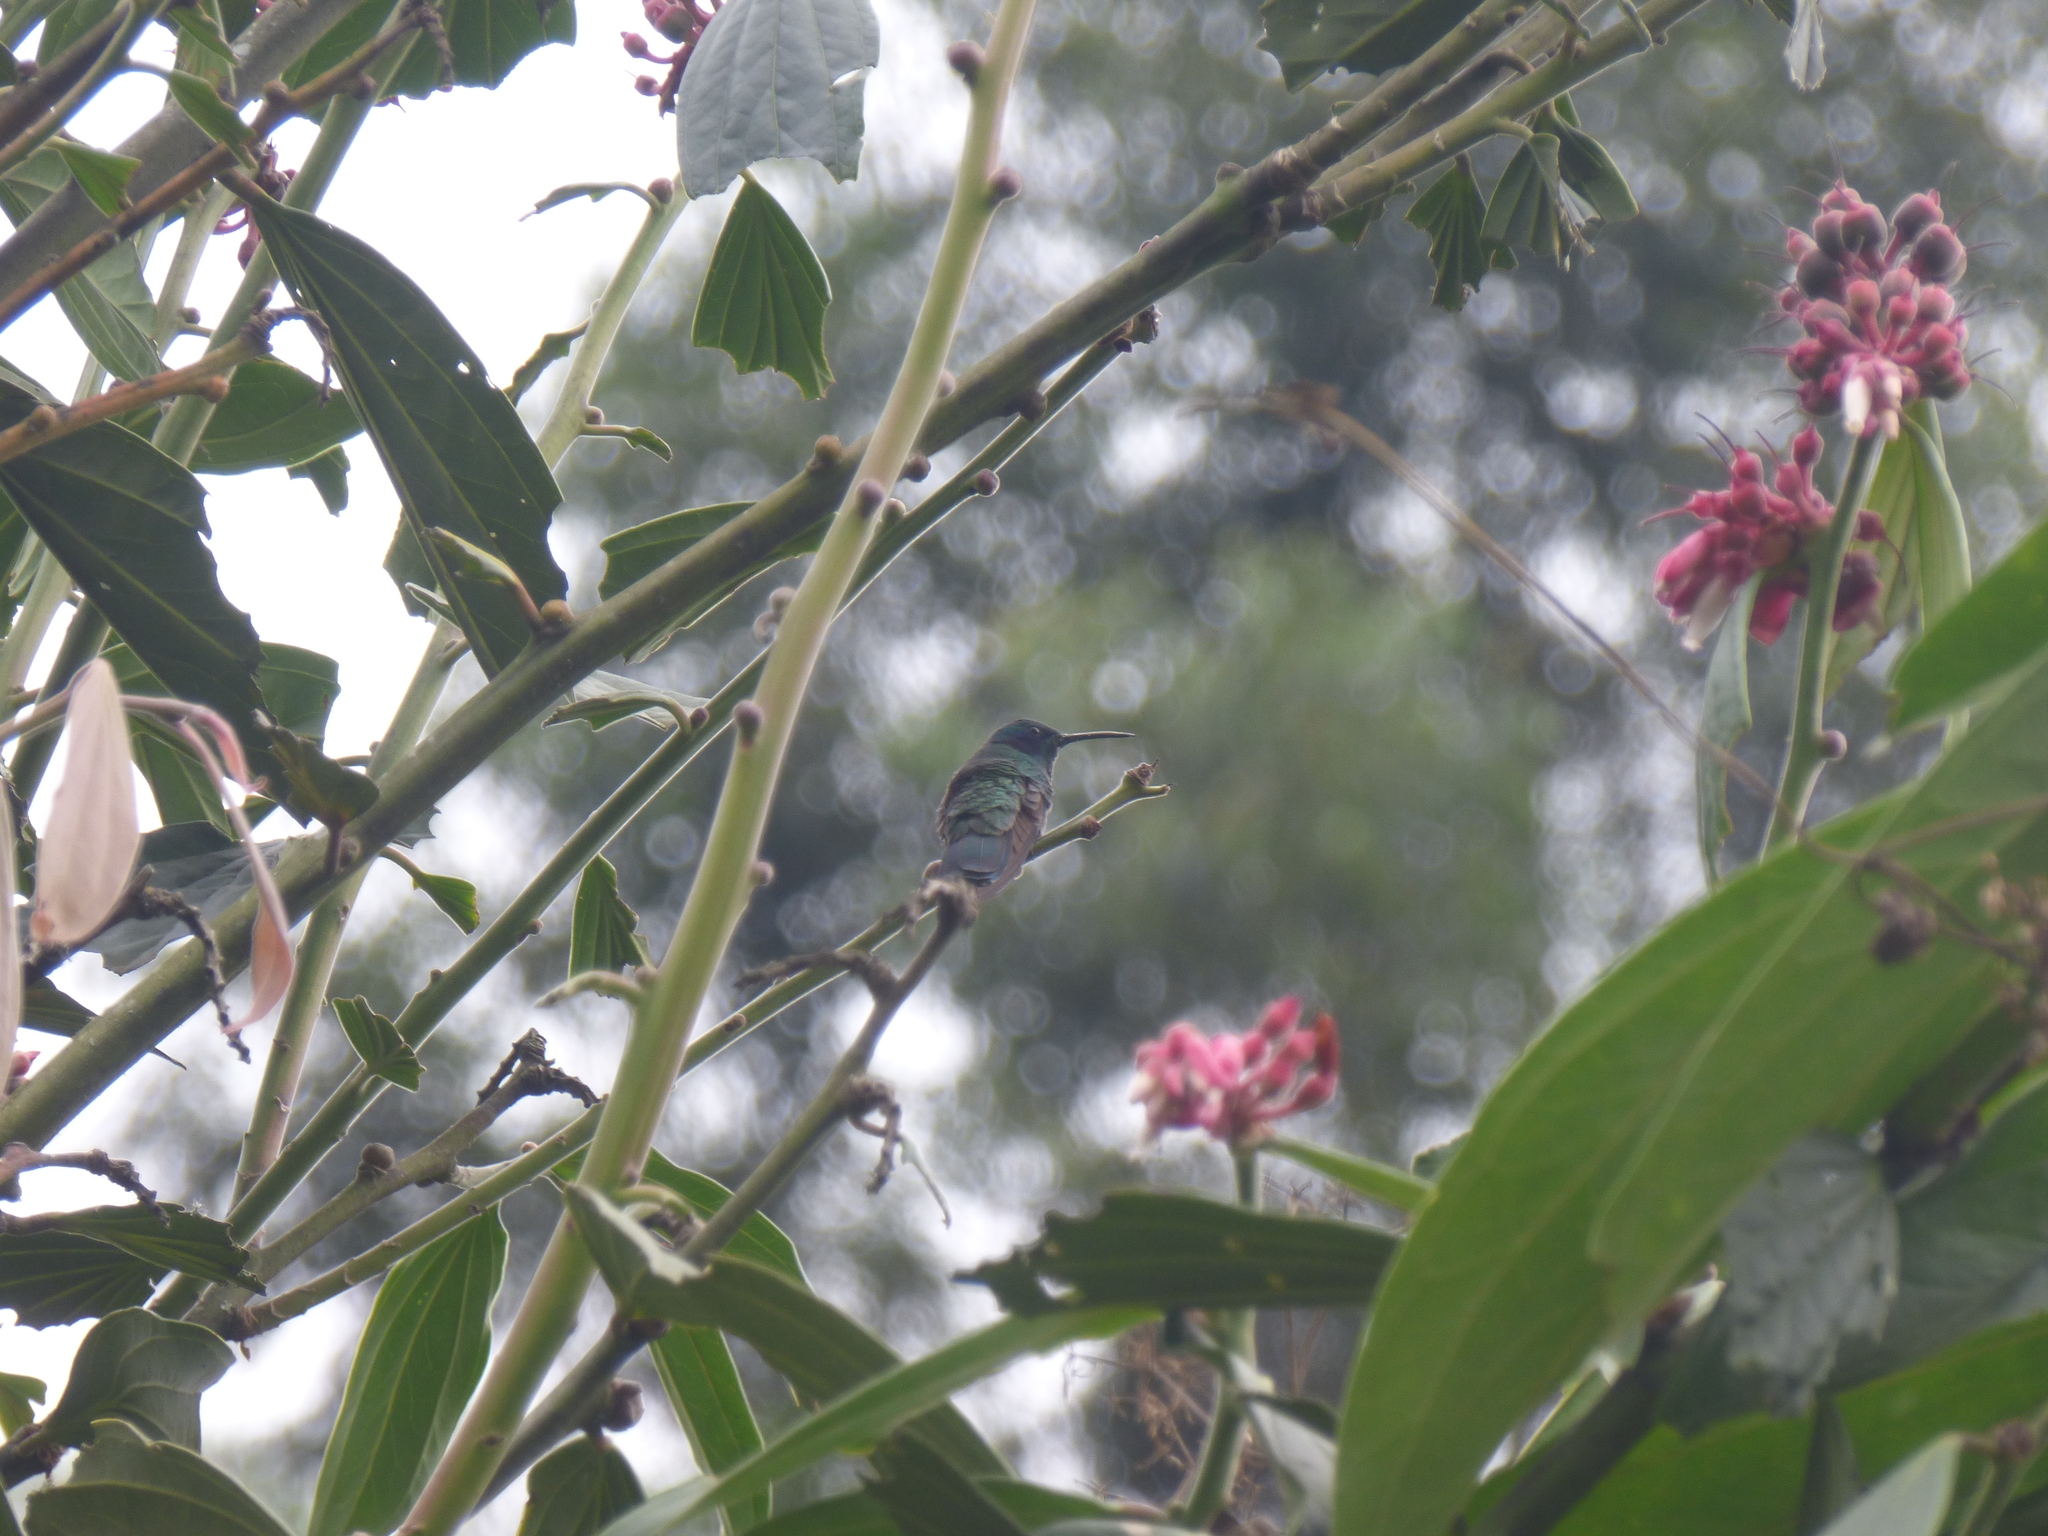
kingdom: Animalia
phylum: Chordata
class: Aves
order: Apodiformes
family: Trochilidae
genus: Colibri
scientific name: Colibri cyanotus
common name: Lesser violetear
